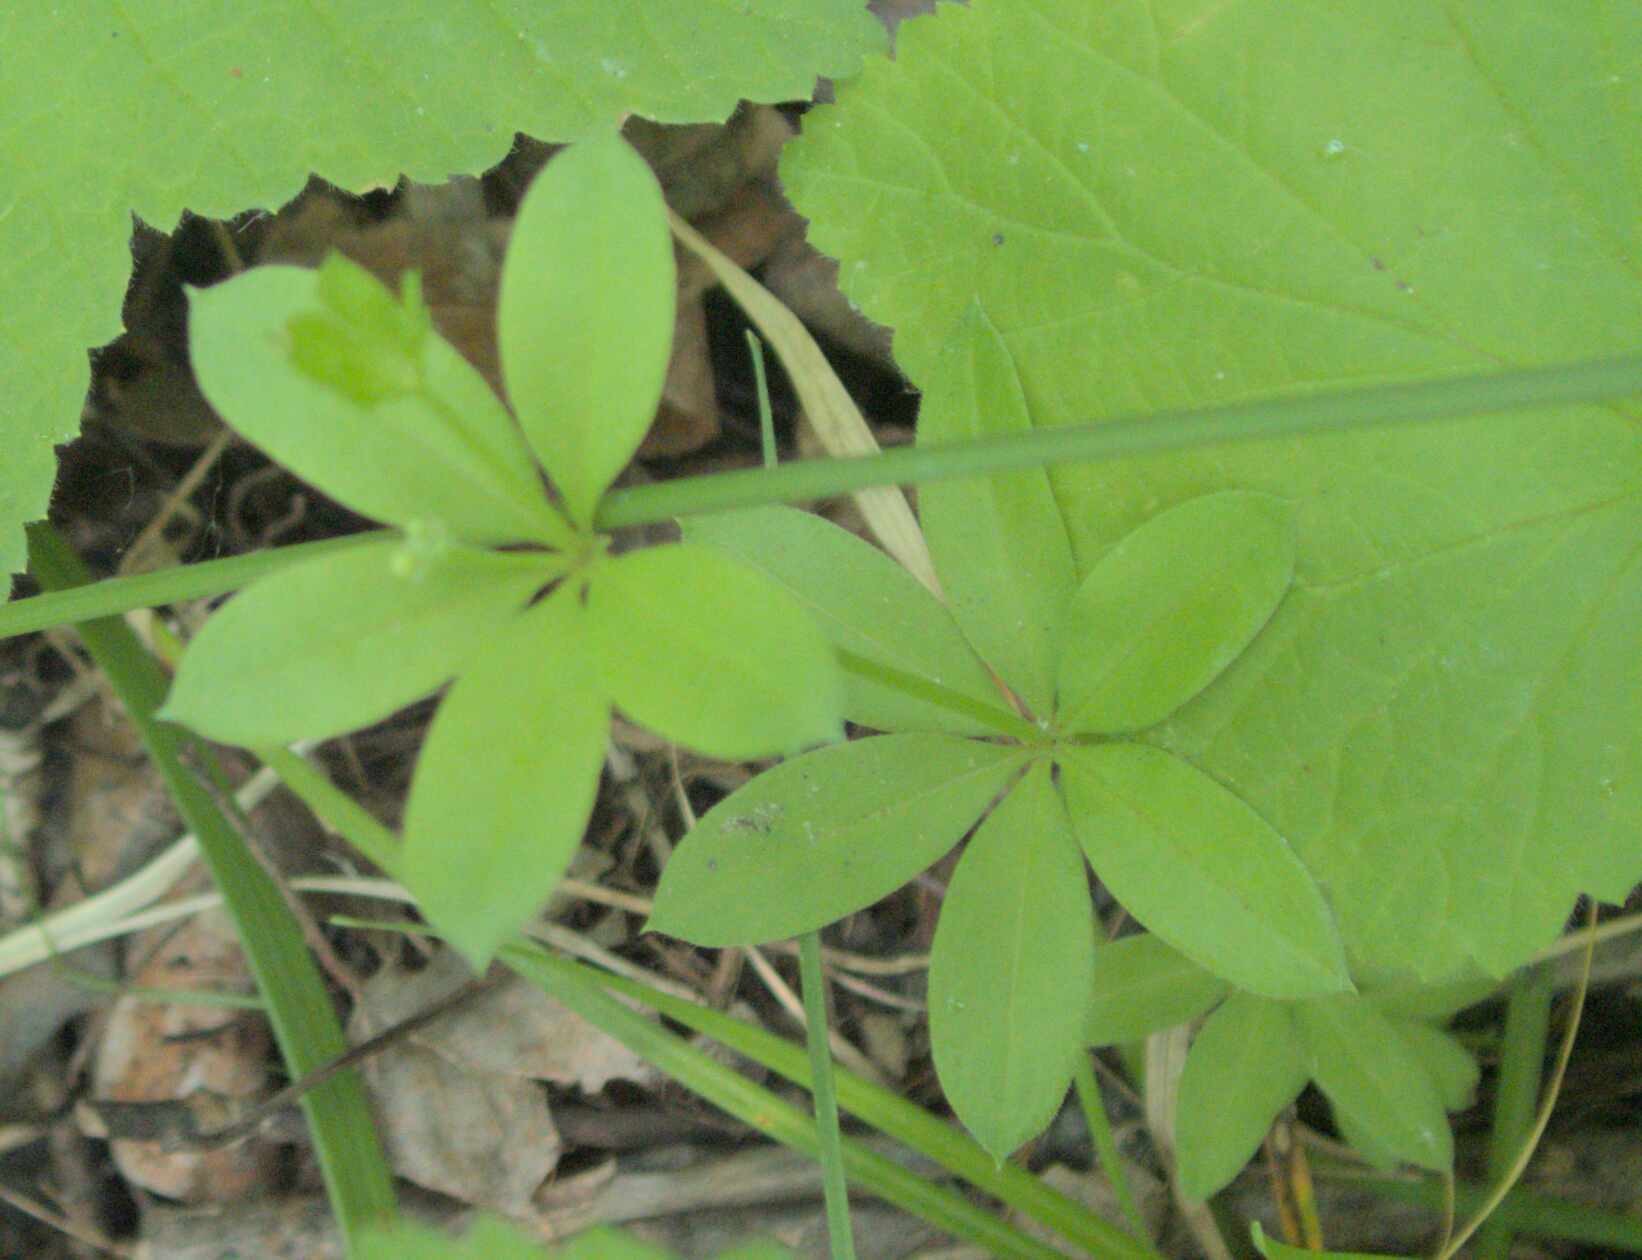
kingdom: Plantae
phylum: Tracheophyta
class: Magnoliopsida
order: Gentianales
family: Rubiaceae
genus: Galium
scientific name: Galium triflorum
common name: Fragrant bedstraw
